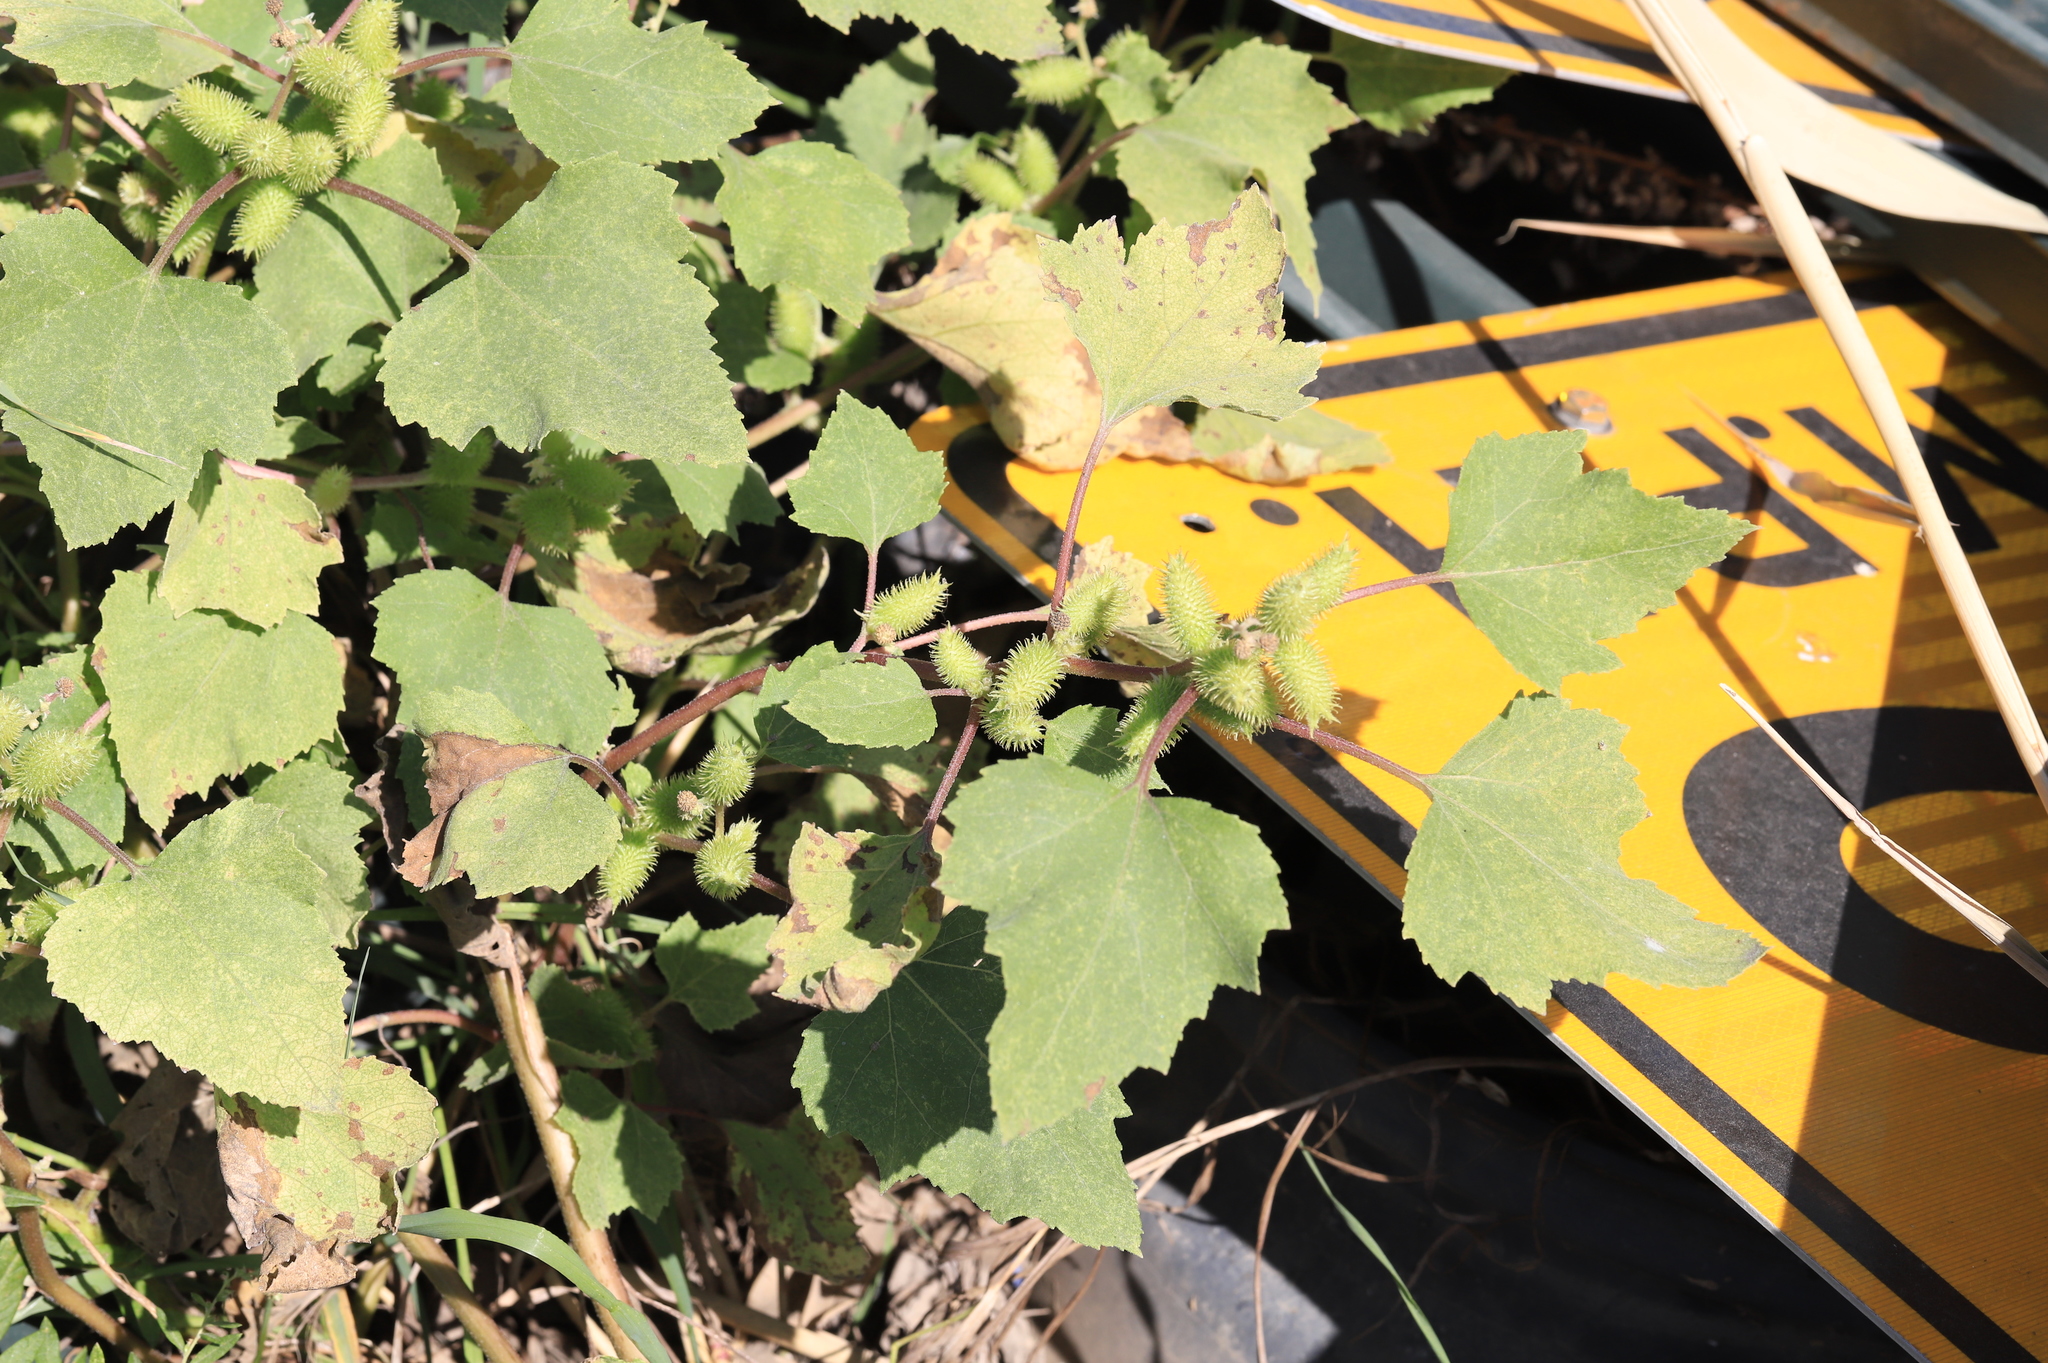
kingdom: Plantae
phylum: Tracheophyta
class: Magnoliopsida
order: Asterales
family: Asteraceae
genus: Xanthium
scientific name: Xanthium strumarium
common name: Rough cocklebur
